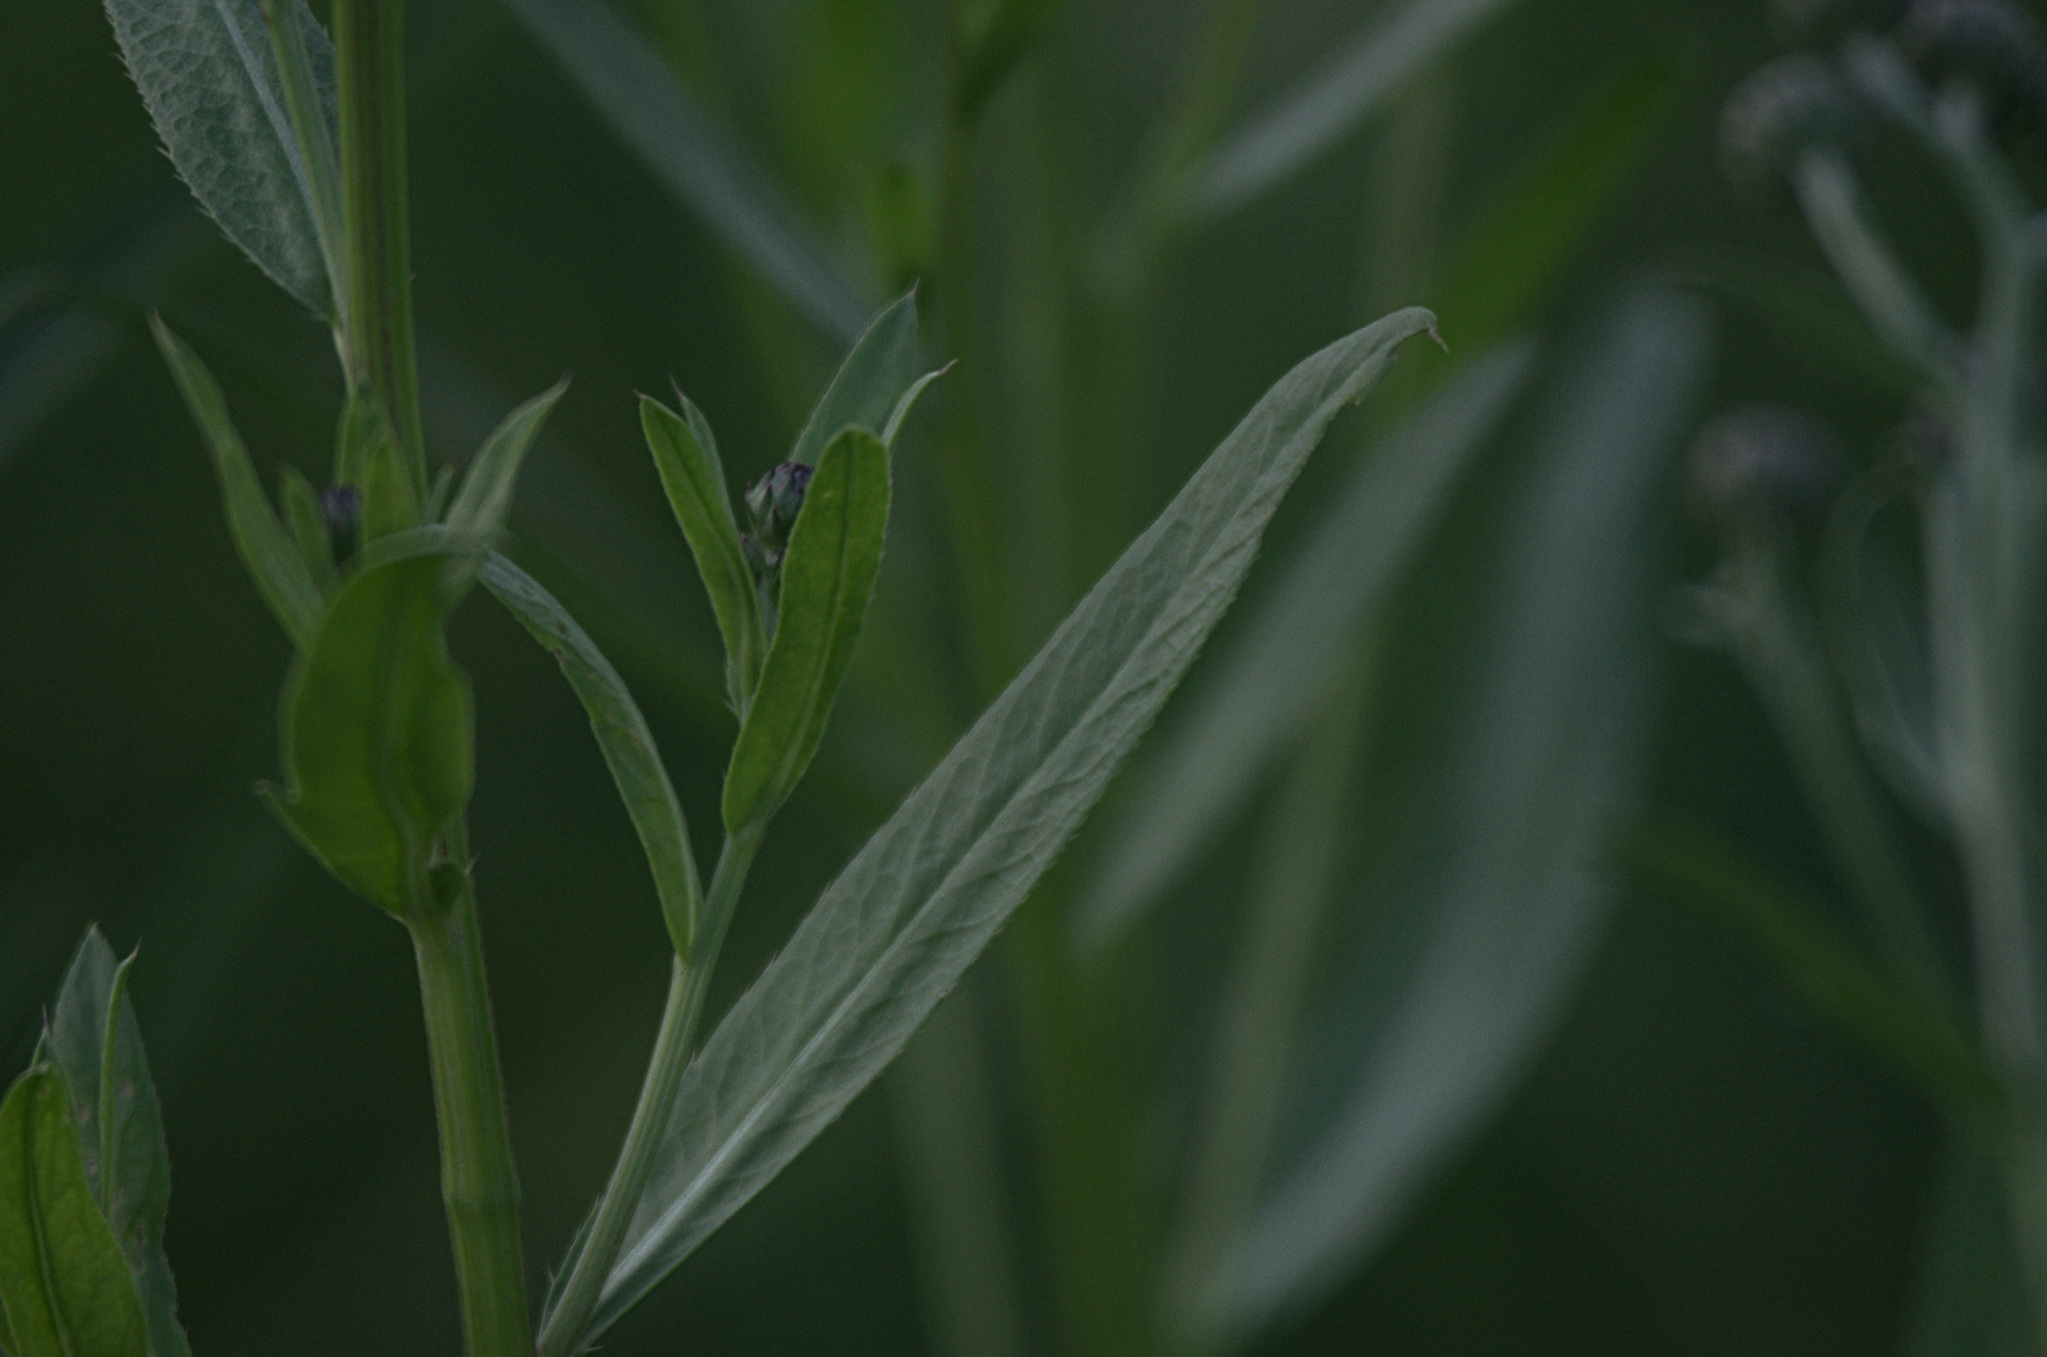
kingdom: Plantae
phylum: Tracheophyta
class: Magnoliopsida
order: Myrtales
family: Onagraceae
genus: Chamaenerion
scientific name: Chamaenerion angustifolium
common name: Fireweed
